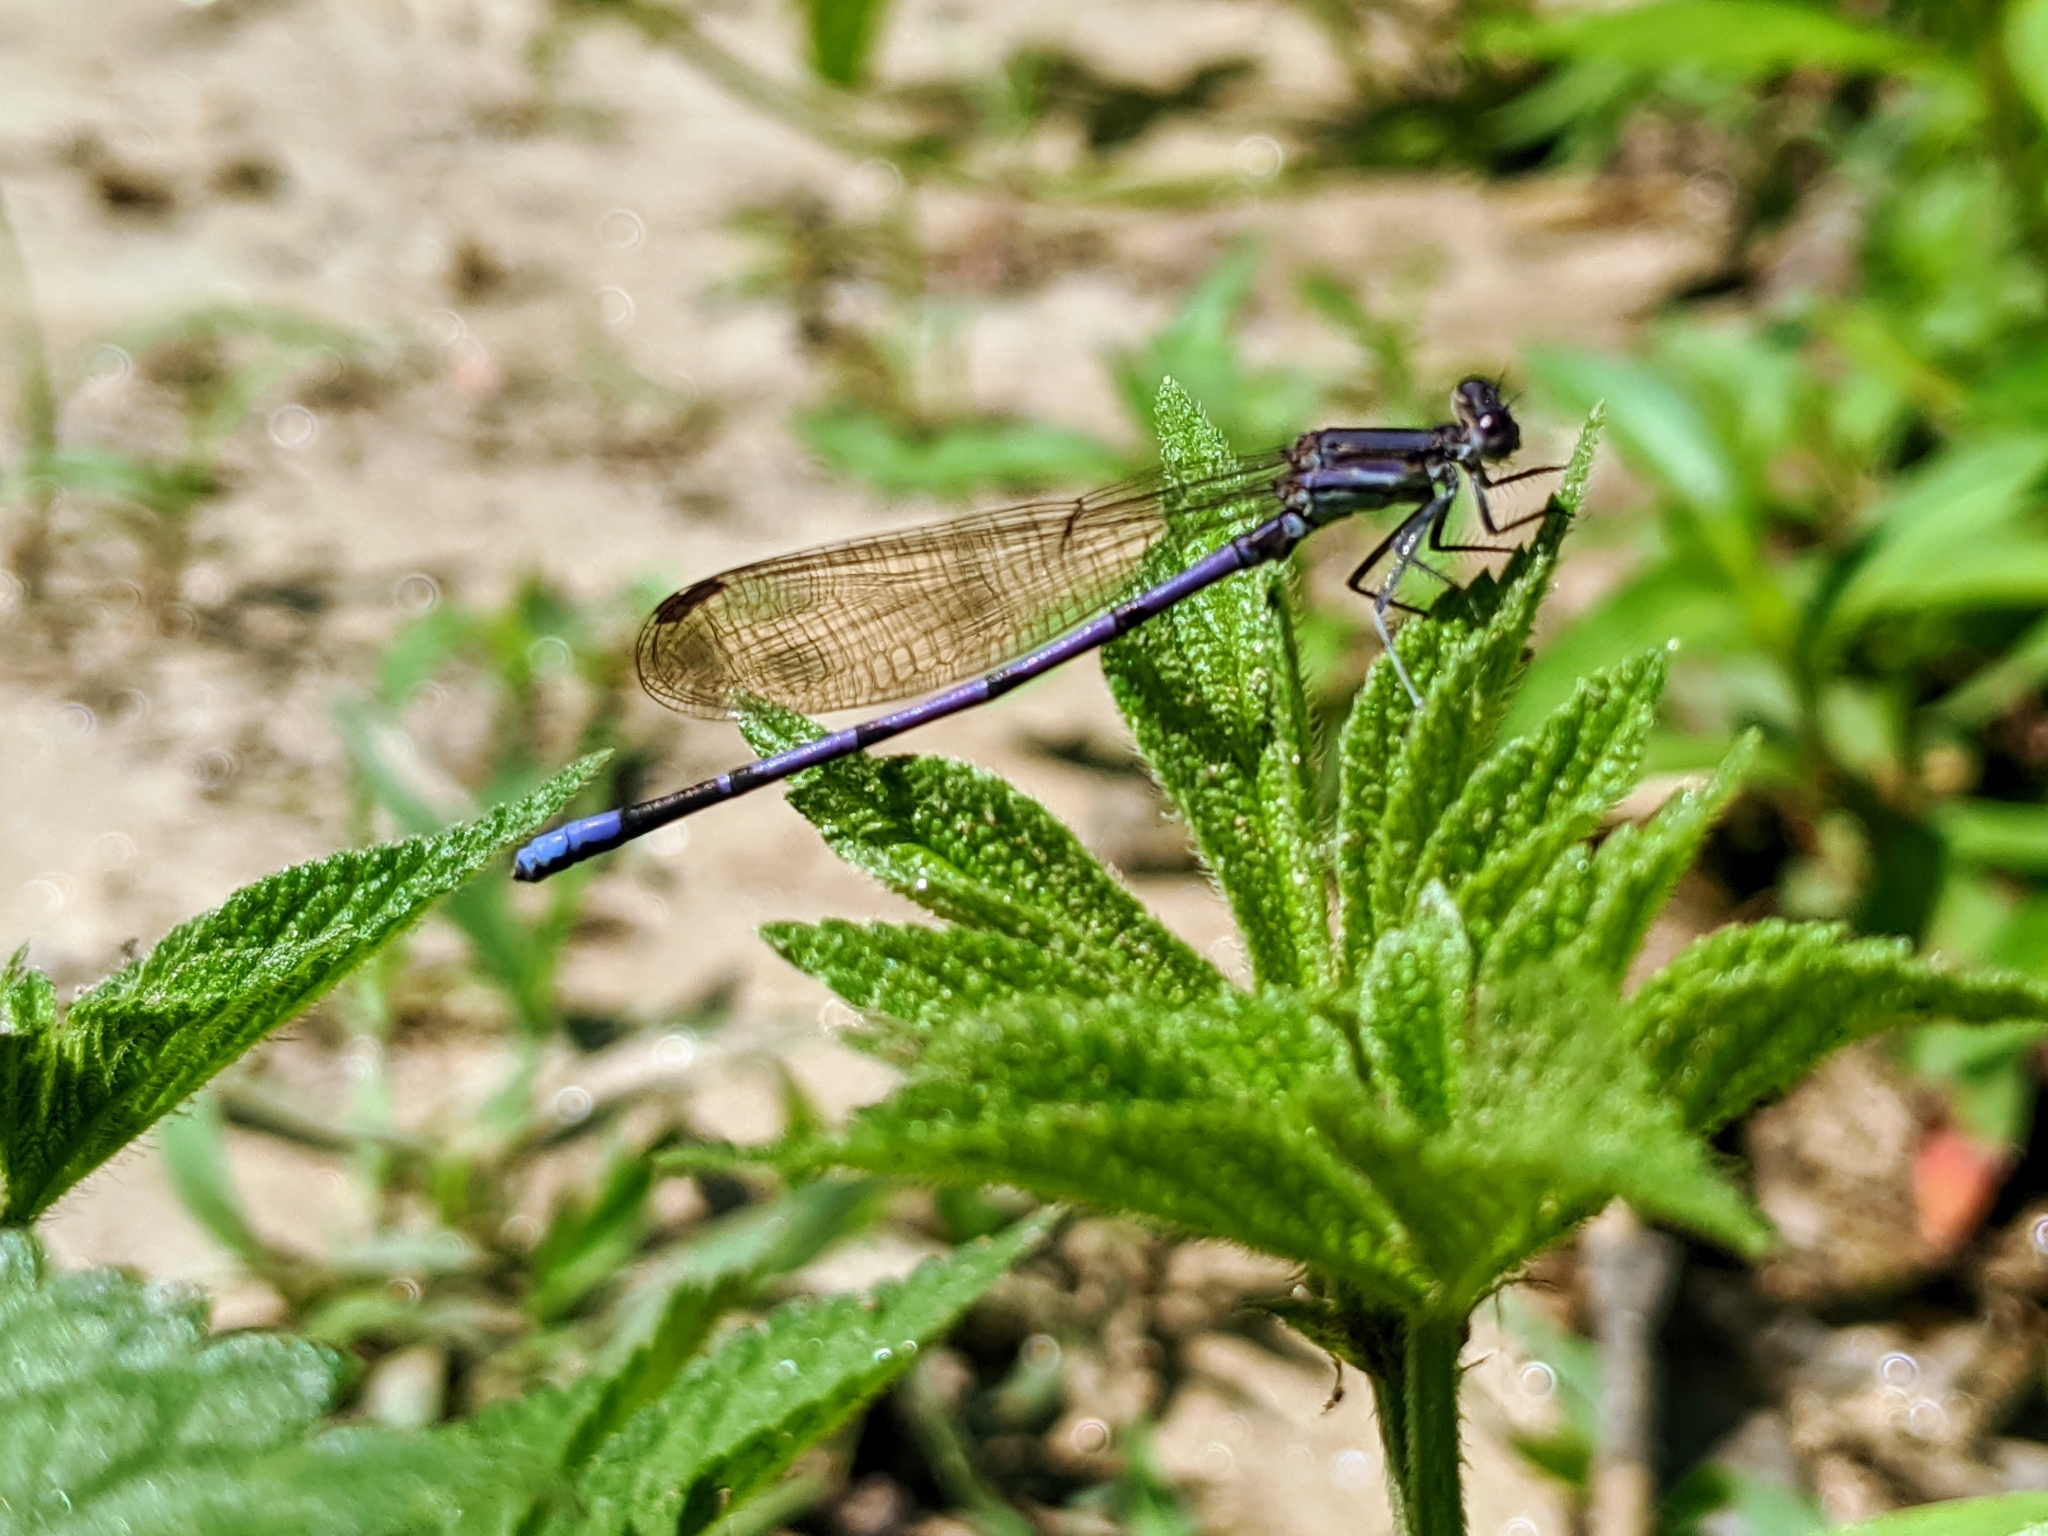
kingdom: Animalia
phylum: Arthropoda
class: Insecta
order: Odonata
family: Coenagrionidae
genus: Argia
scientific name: Argia fumipennis
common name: Variable dancer
